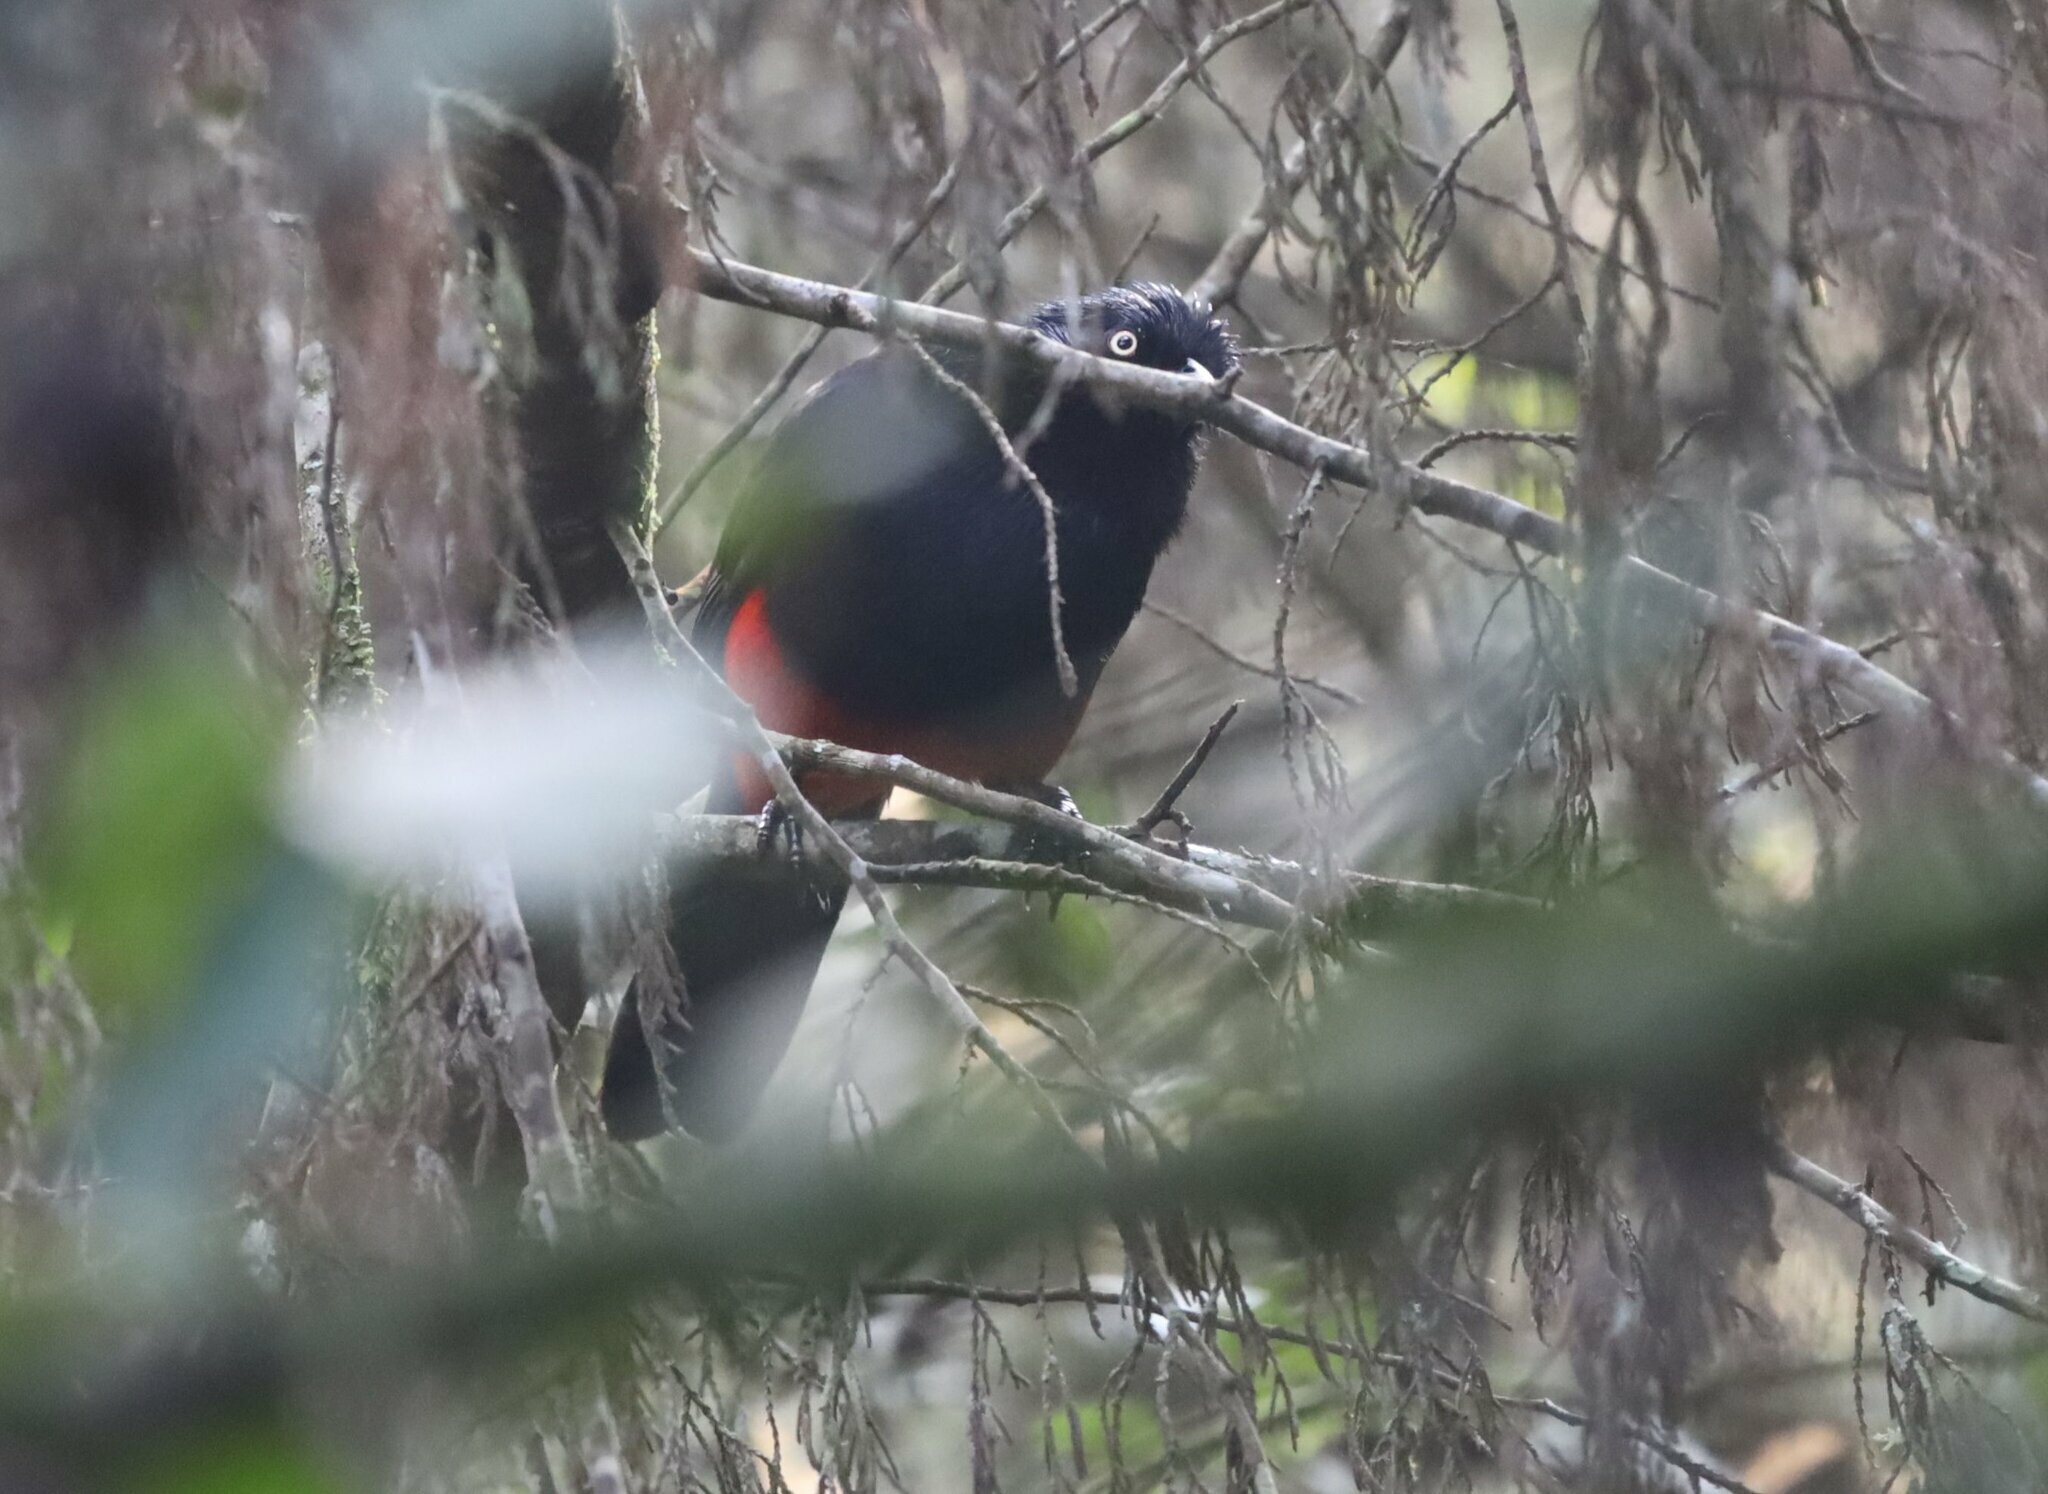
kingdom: Animalia
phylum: Chordata
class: Aves
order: Passeriformes
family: Icteridae
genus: Hypopyrrhus
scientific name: Hypopyrrhus pyrohypogaster
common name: Red-bellied grackle
